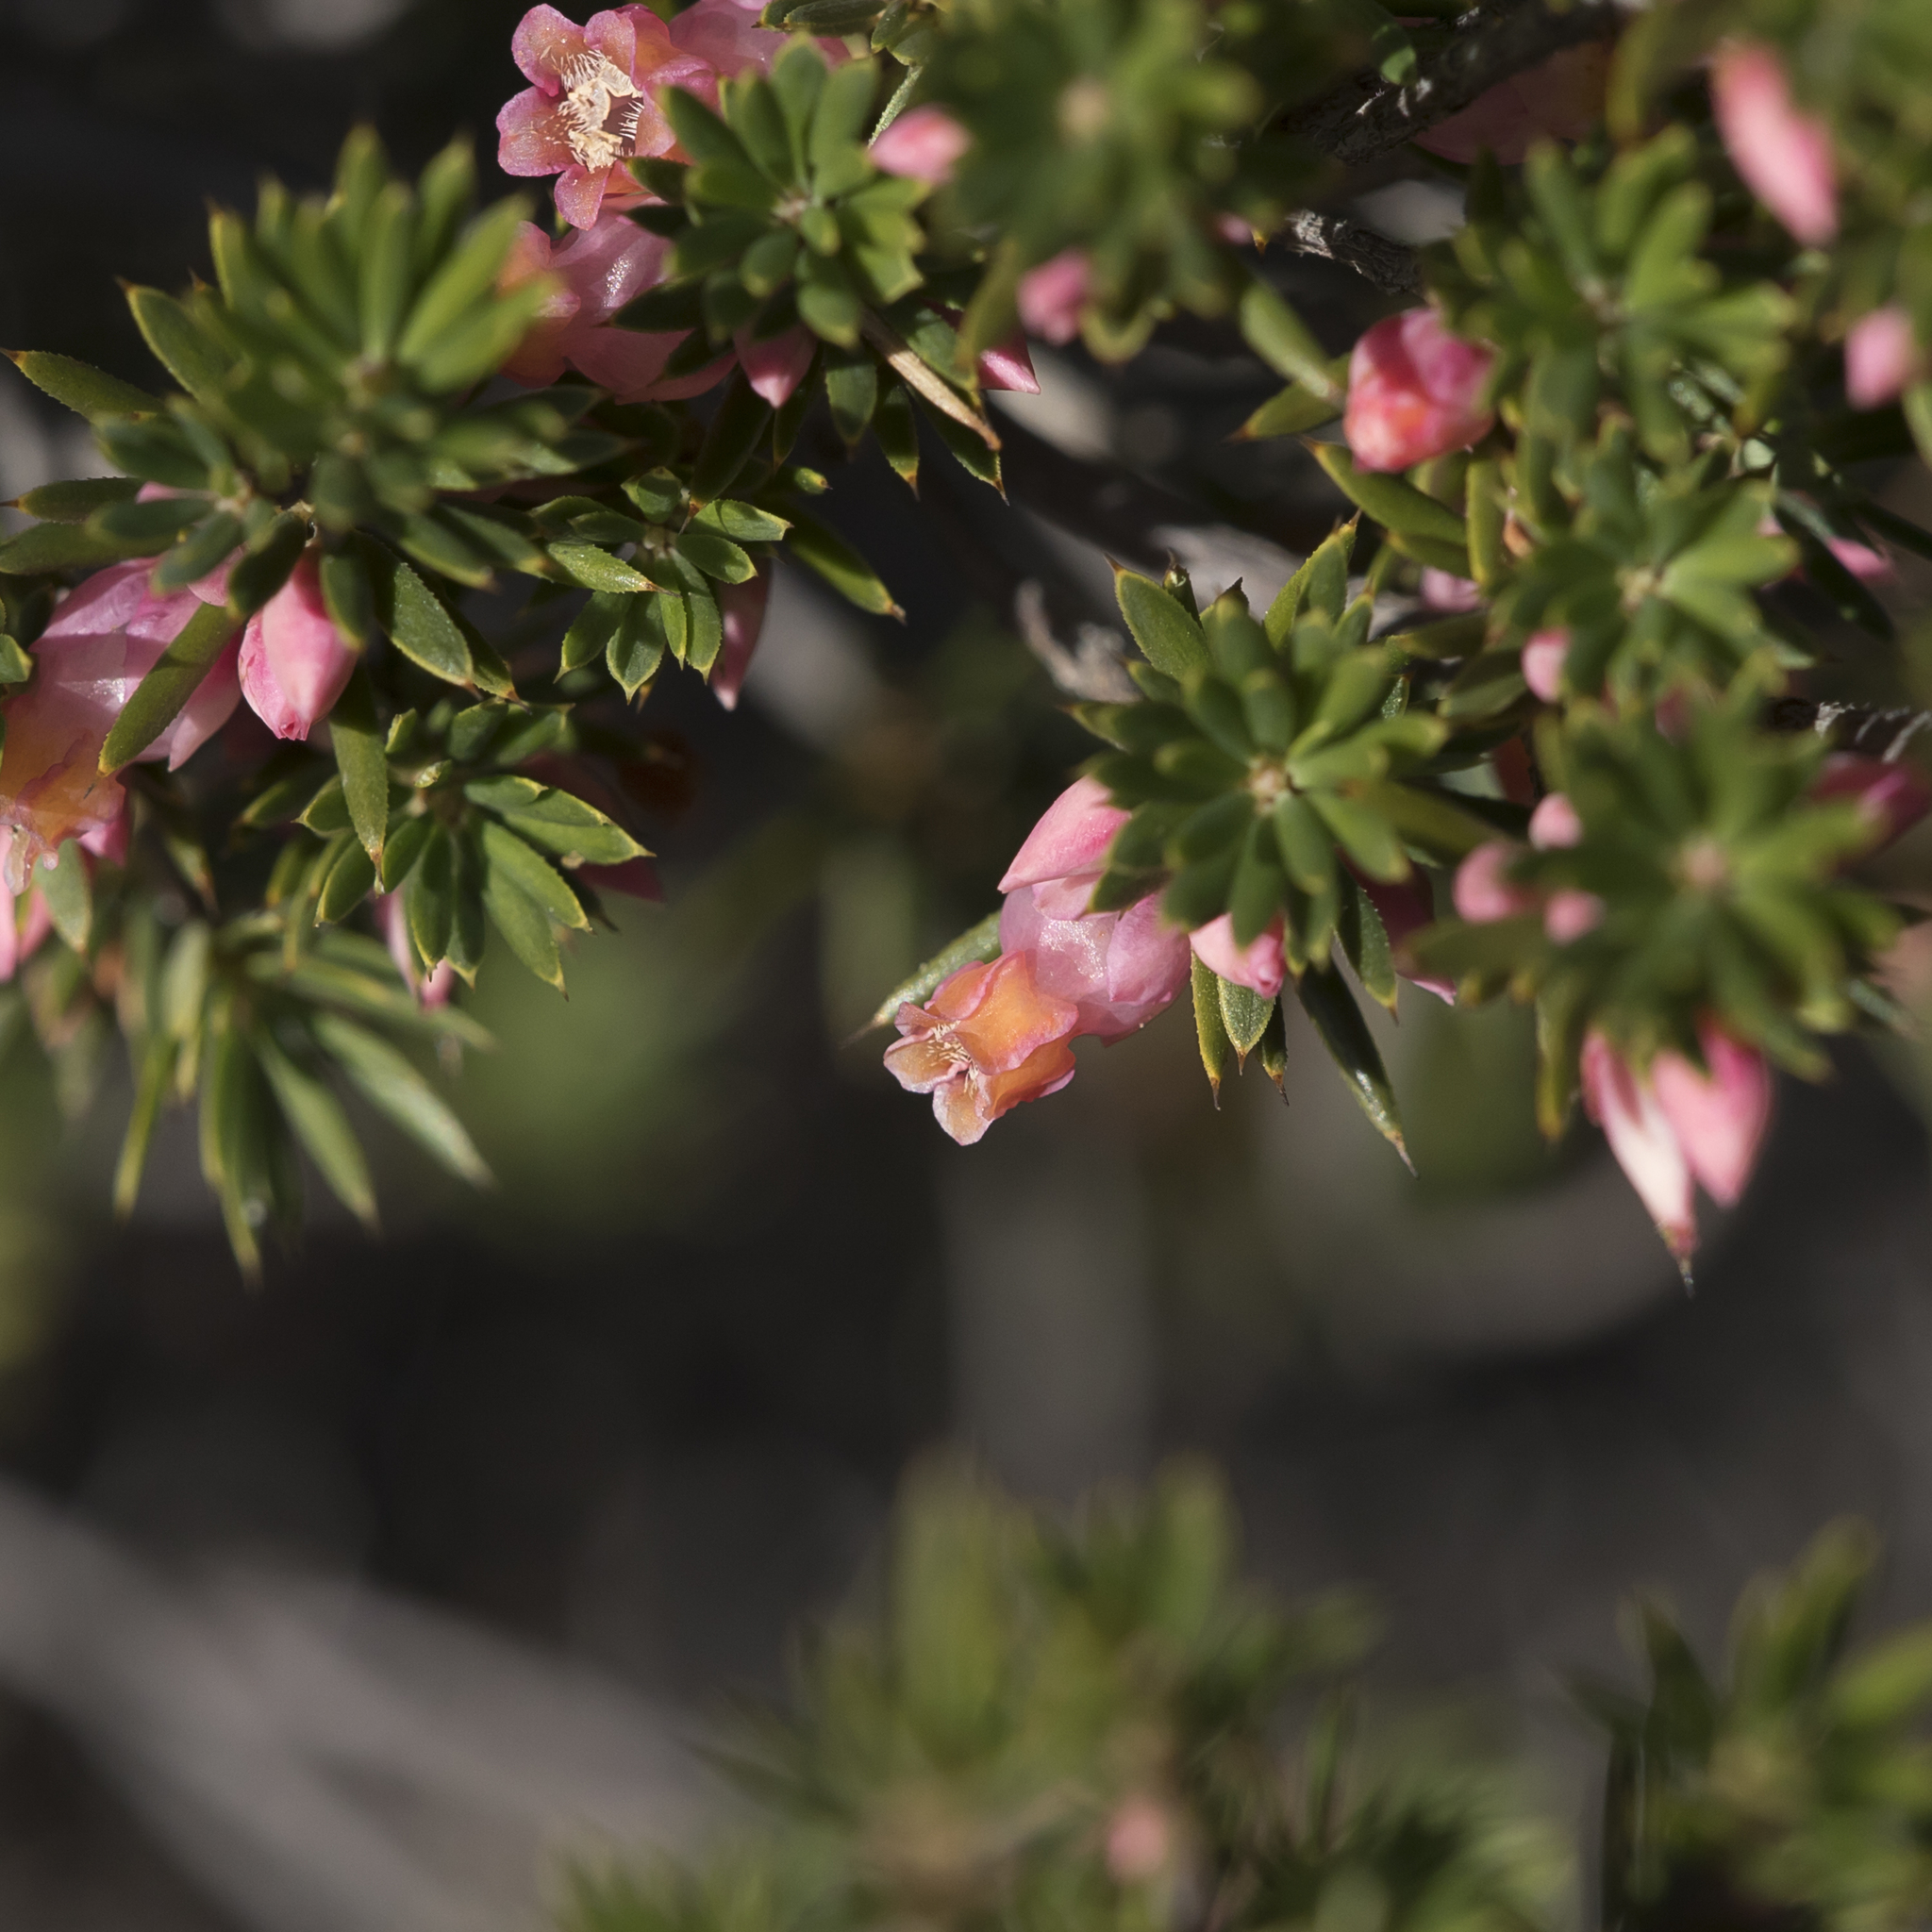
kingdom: Plantae
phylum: Tracheophyta
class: Magnoliopsida
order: Ericales
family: Ericaceae
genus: Brachyloma
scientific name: Brachyloma ericoides
